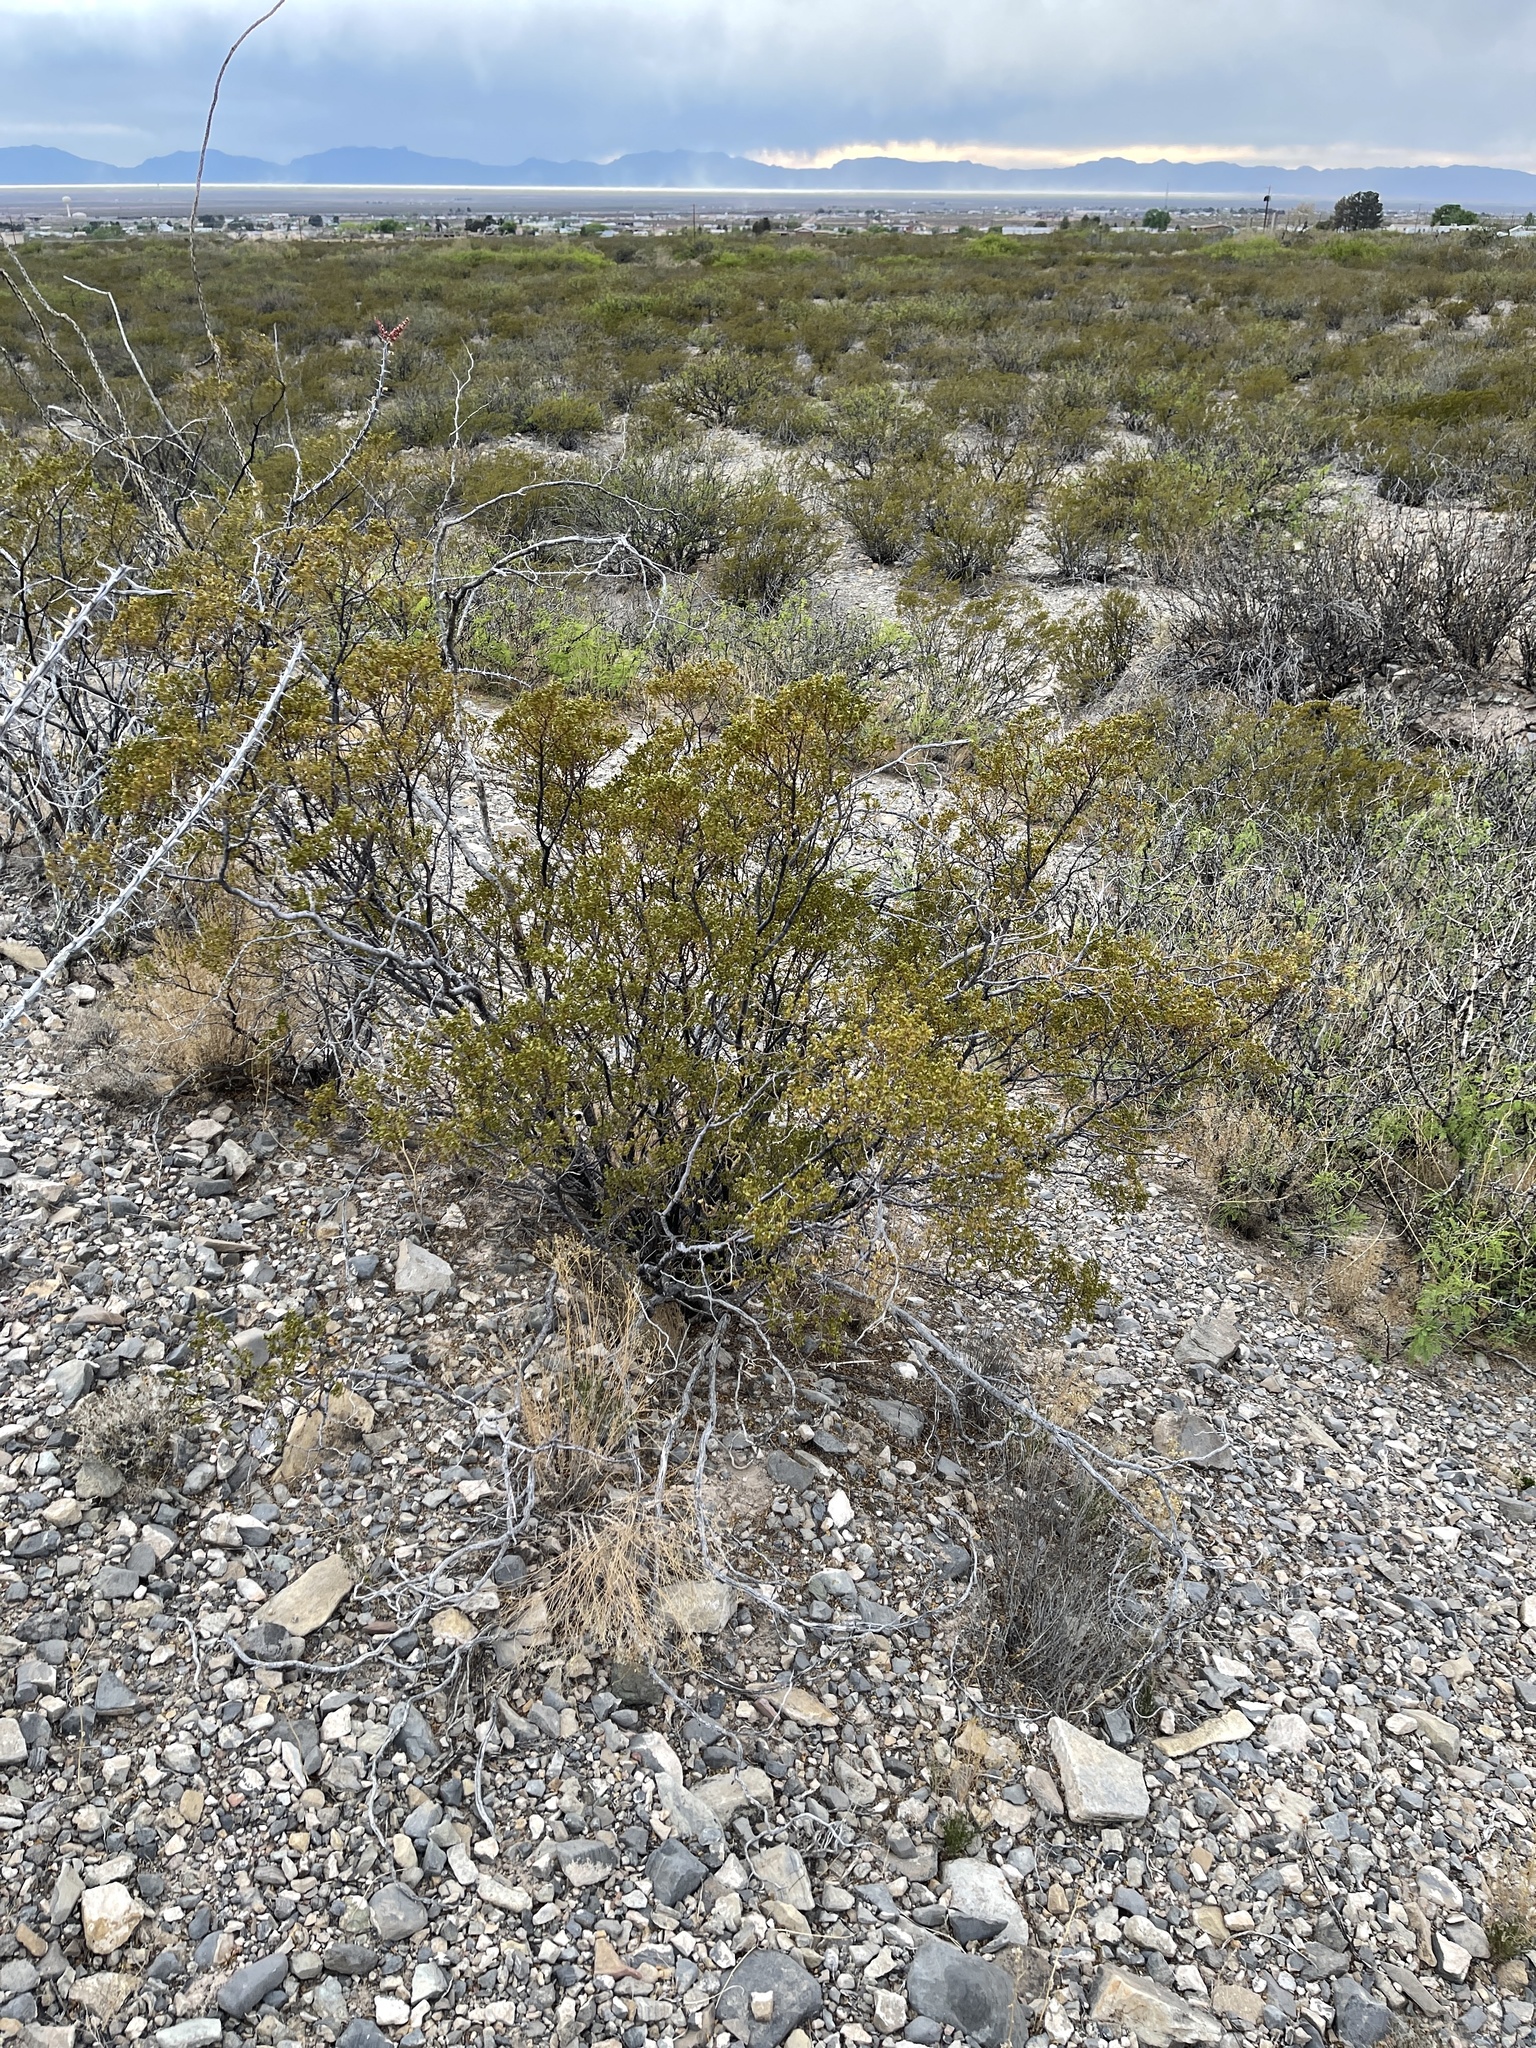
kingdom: Plantae
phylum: Tracheophyta
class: Magnoliopsida
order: Zygophyllales
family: Zygophyllaceae
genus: Larrea
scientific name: Larrea tridentata
